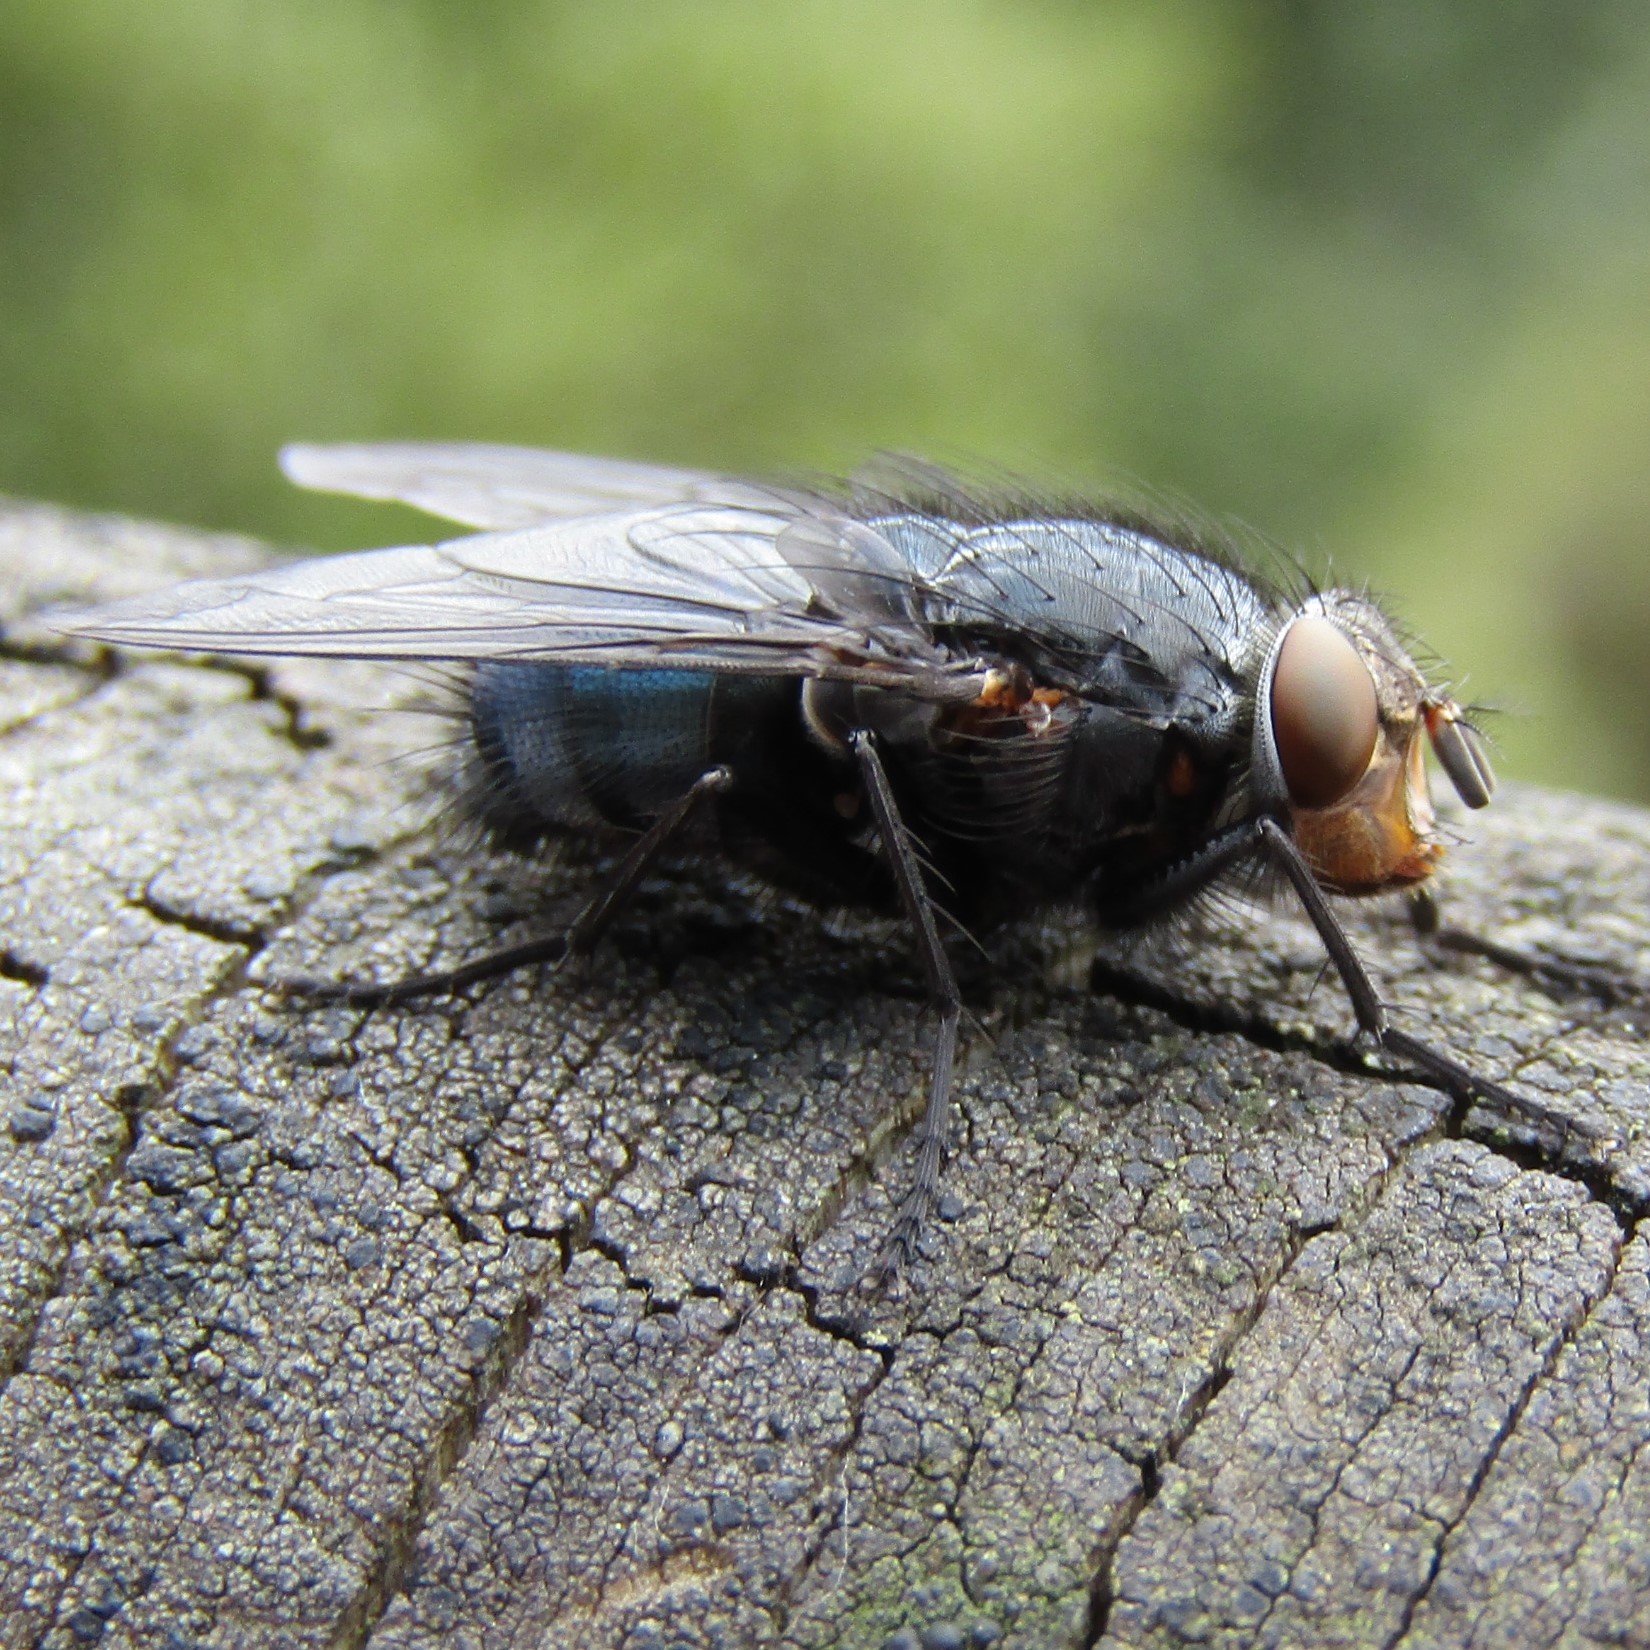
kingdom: Animalia
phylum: Arthropoda
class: Insecta
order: Diptera
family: Calliphoridae
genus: Calliphora
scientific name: Calliphora vicina
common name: Common blow flie
